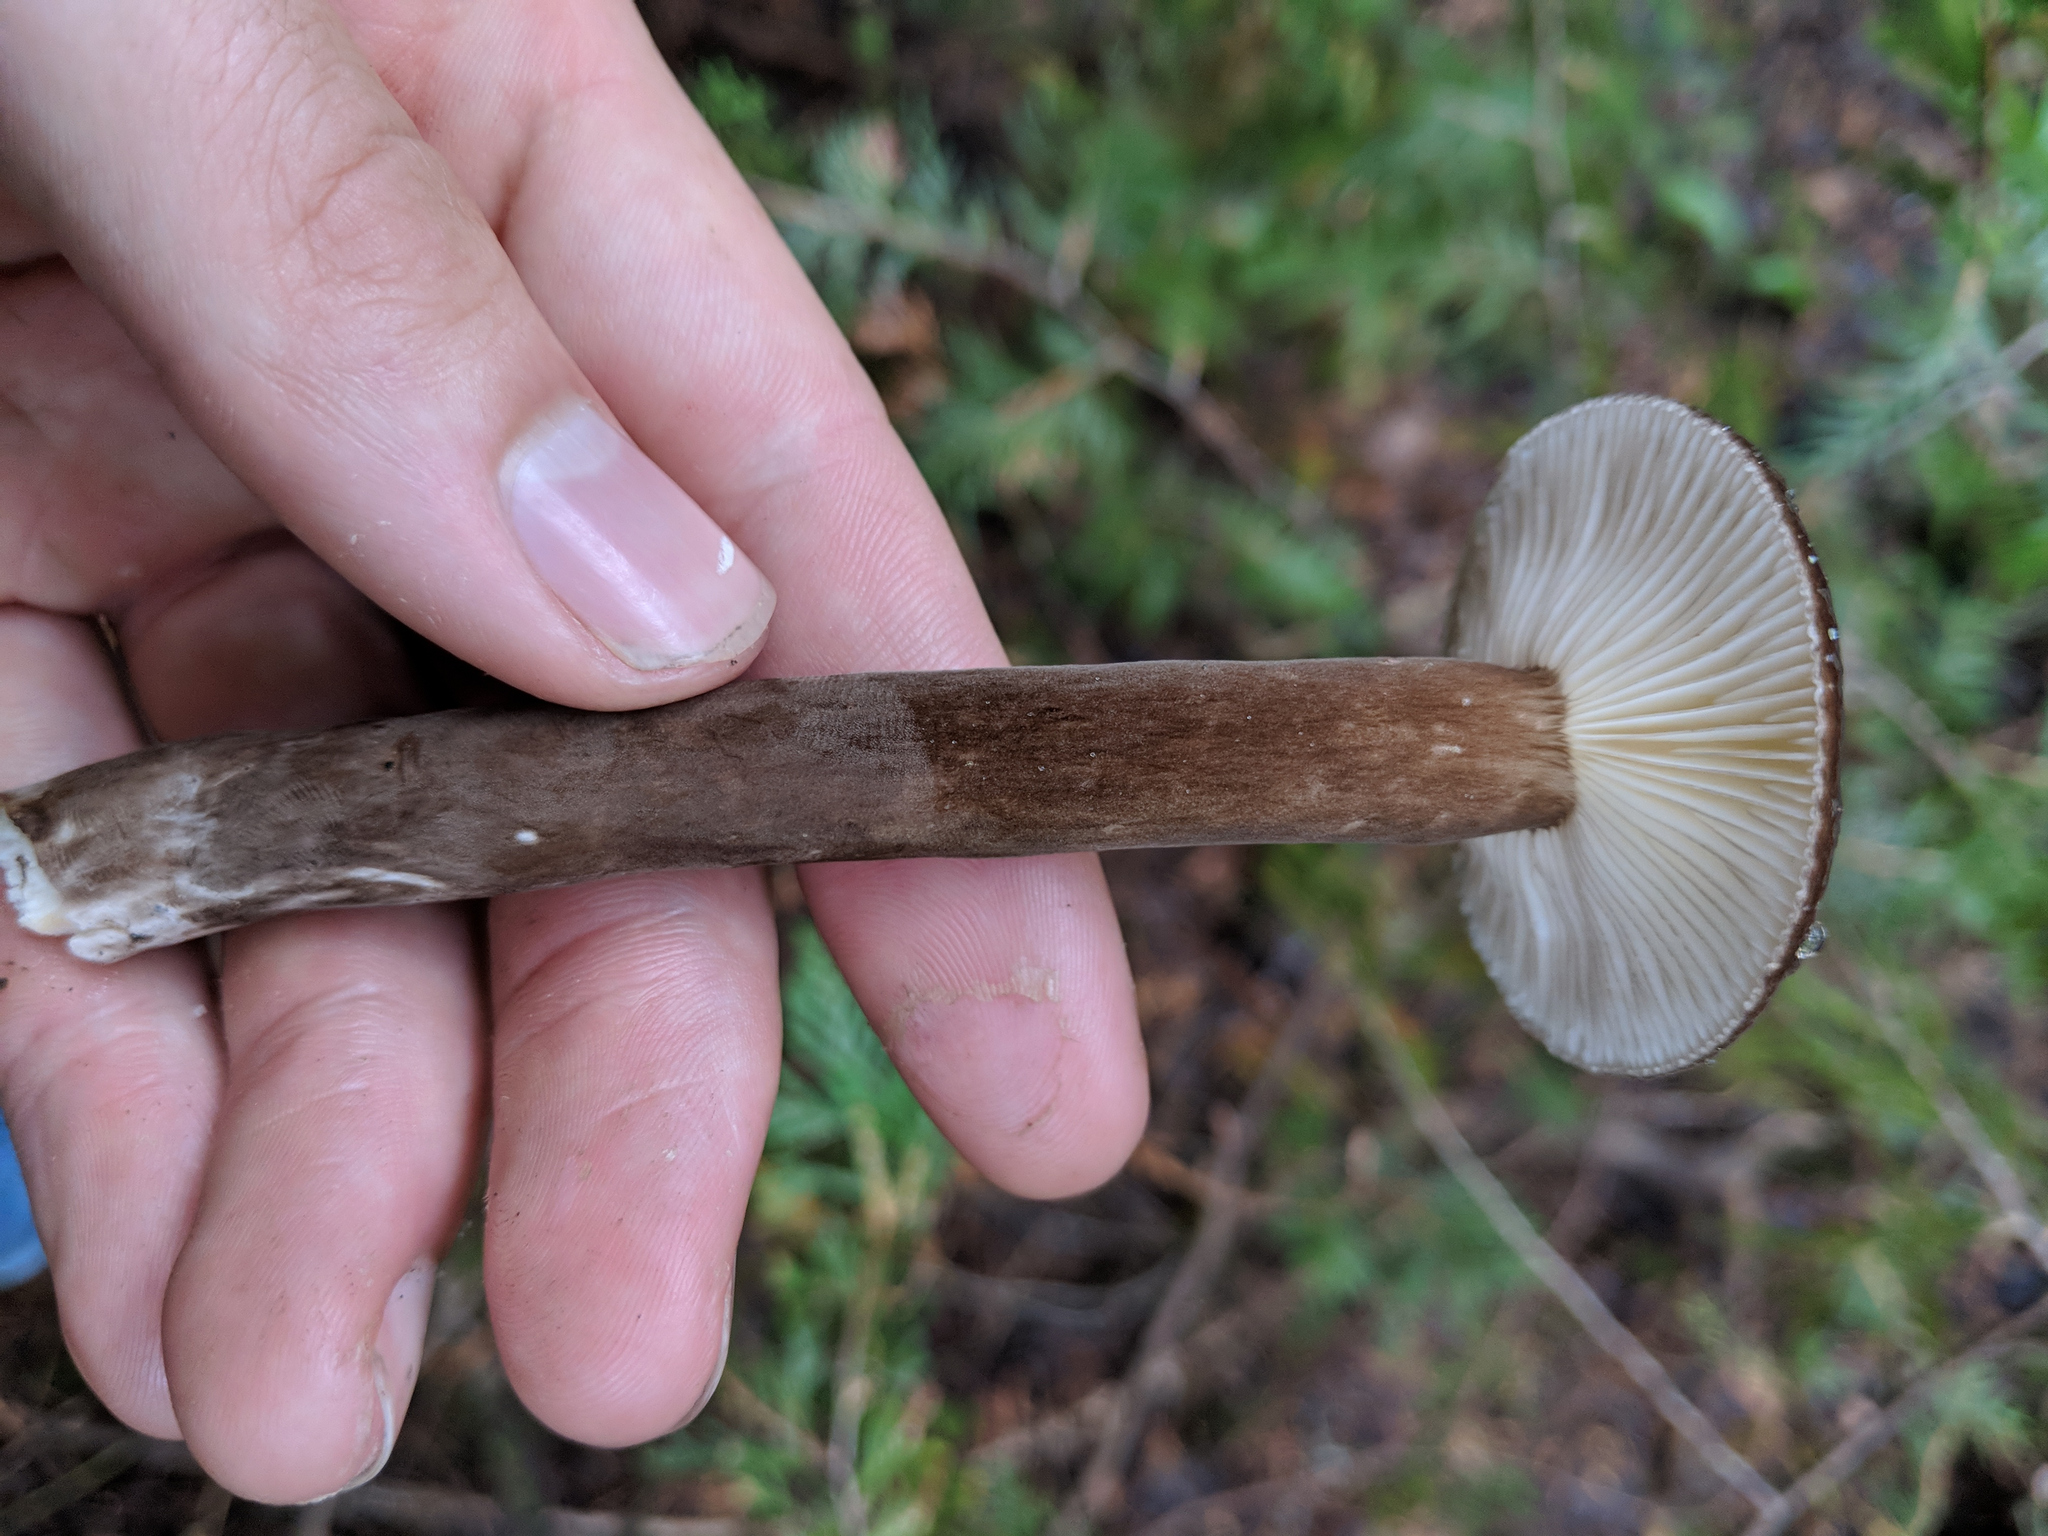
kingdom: Fungi
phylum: Basidiomycota
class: Agaricomycetes
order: Russulales
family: Russulaceae
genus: Lactarius
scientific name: Lactarius lignyotus
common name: Velvet milkcap
